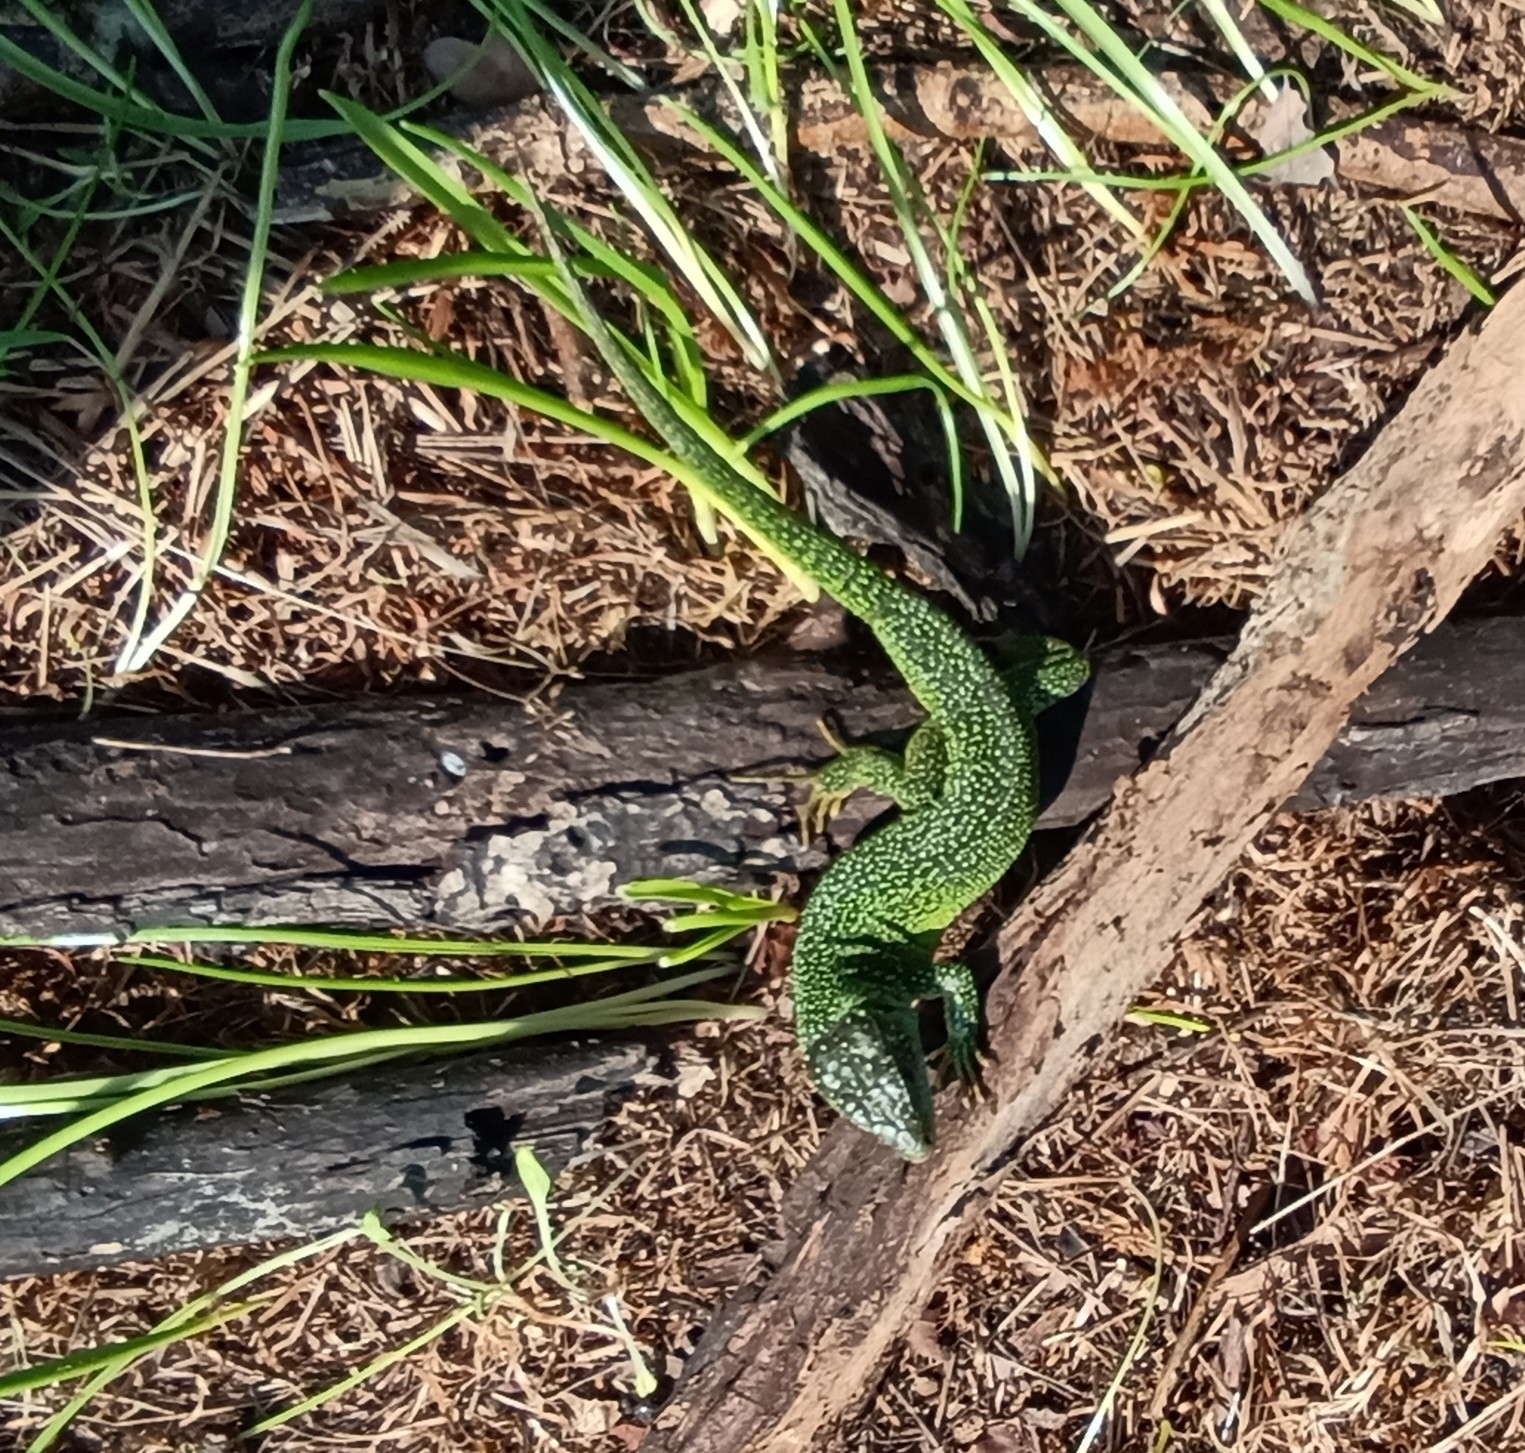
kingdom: Animalia
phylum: Chordata
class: Squamata
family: Lacertidae
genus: Lacerta
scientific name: Lacerta bilineata
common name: Western green lizard
